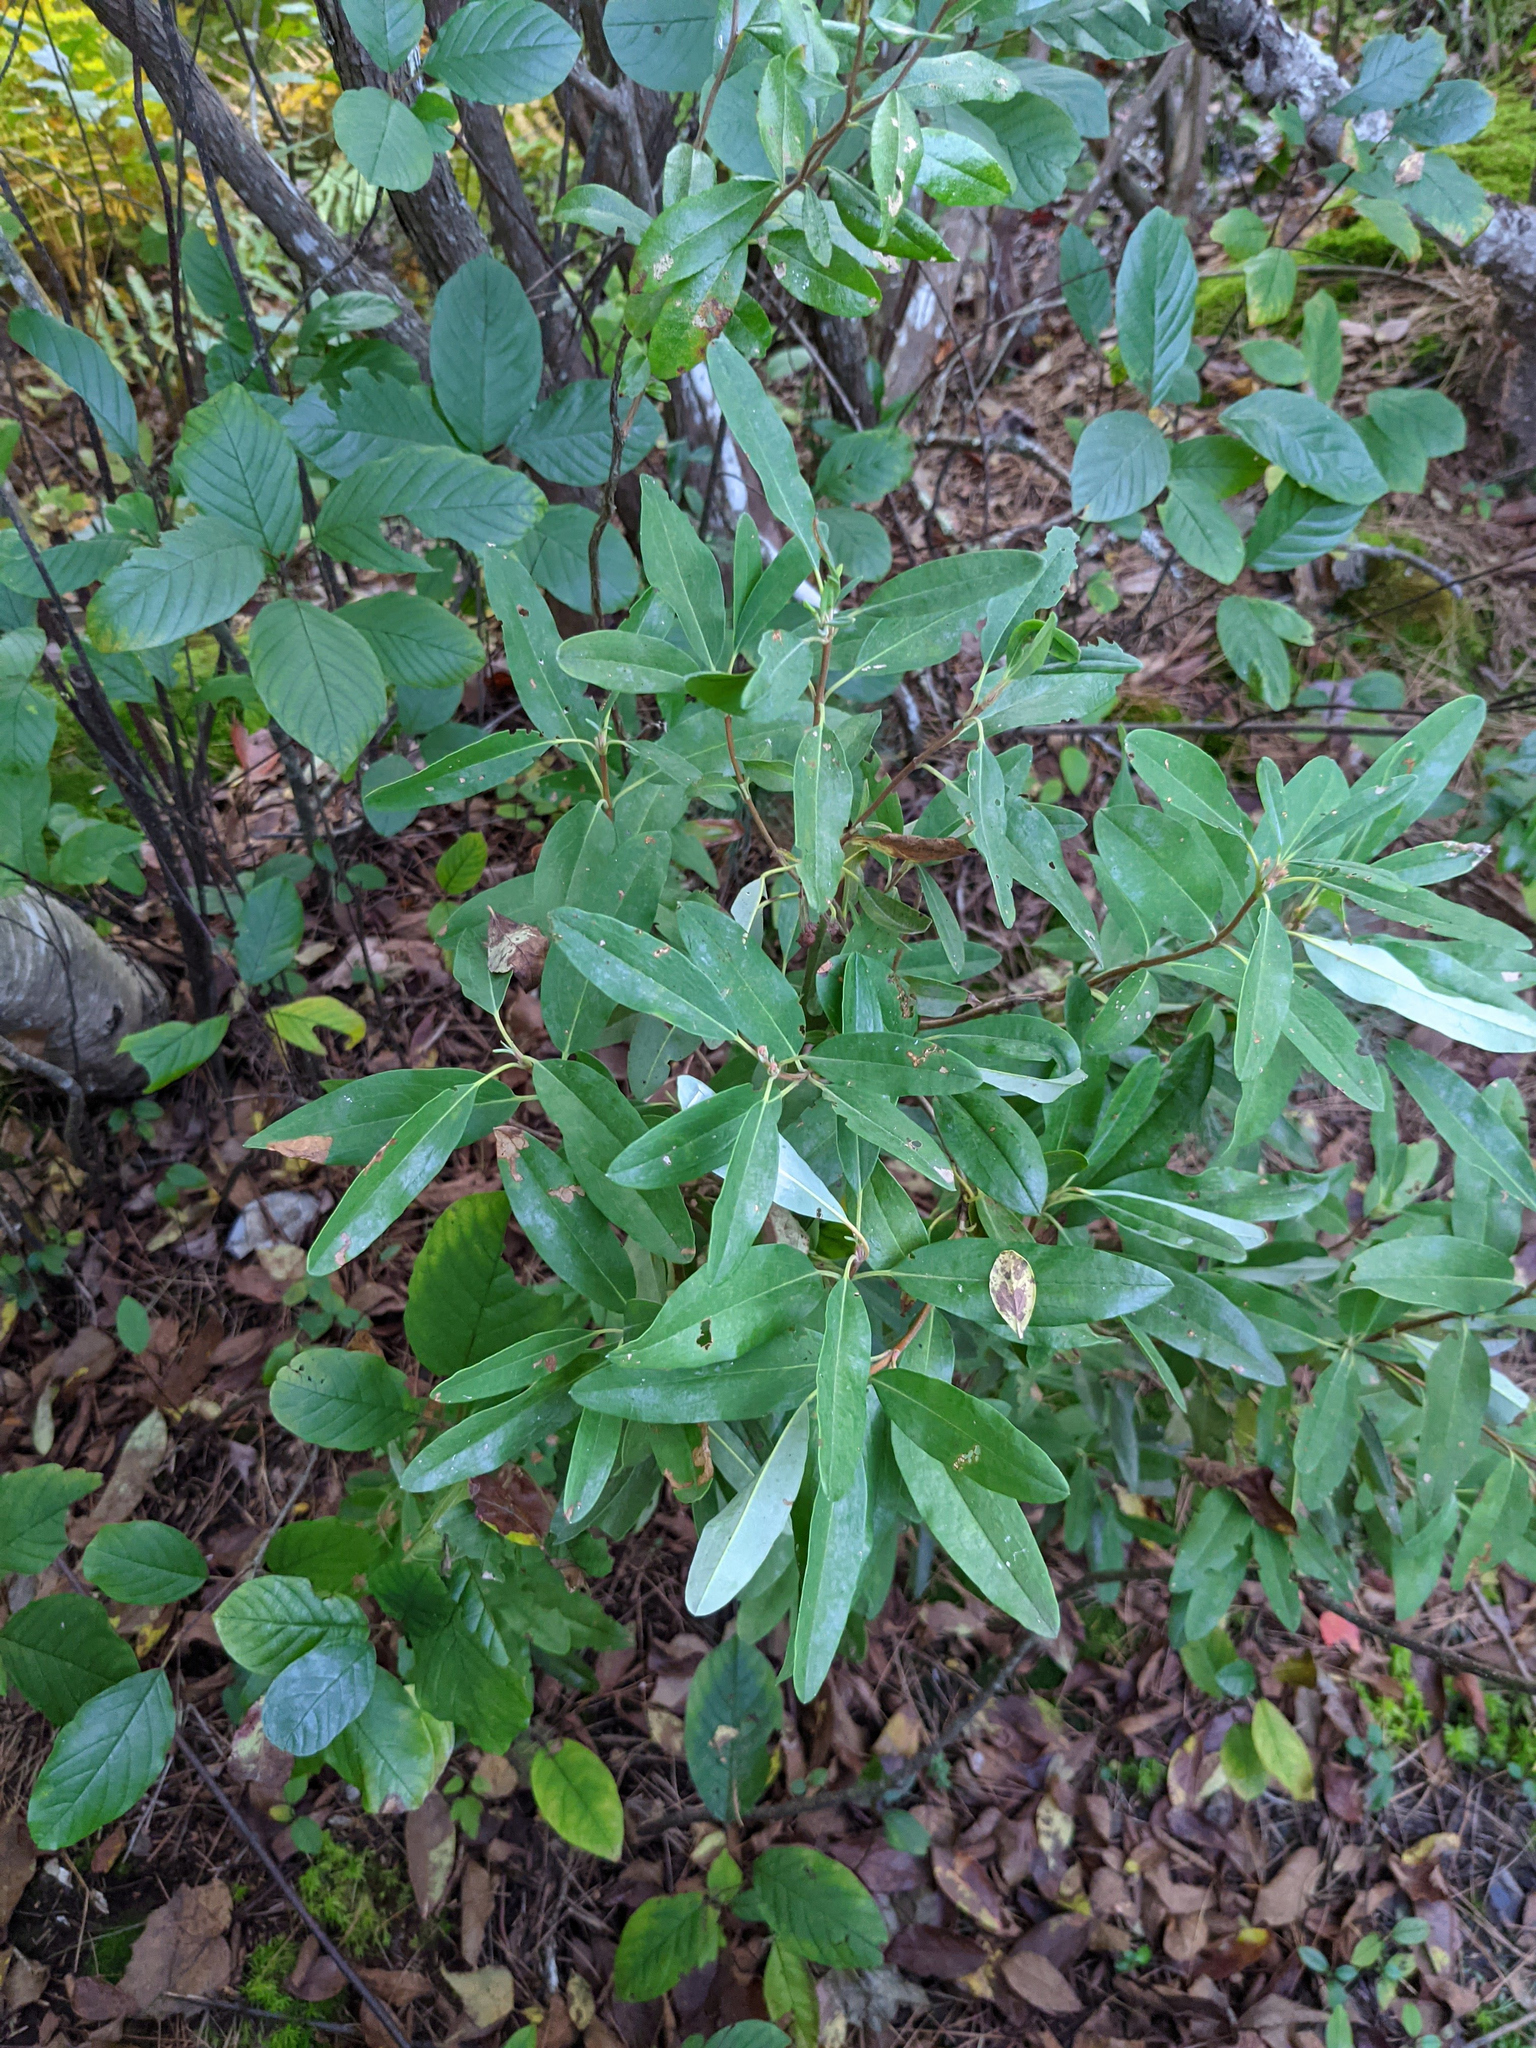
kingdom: Plantae
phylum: Tracheophyta
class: Magnoliopsida
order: Ericales
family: Ericaceae
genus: Kalmia
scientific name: Kalmia angustifolia
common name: Sheep-laurel
